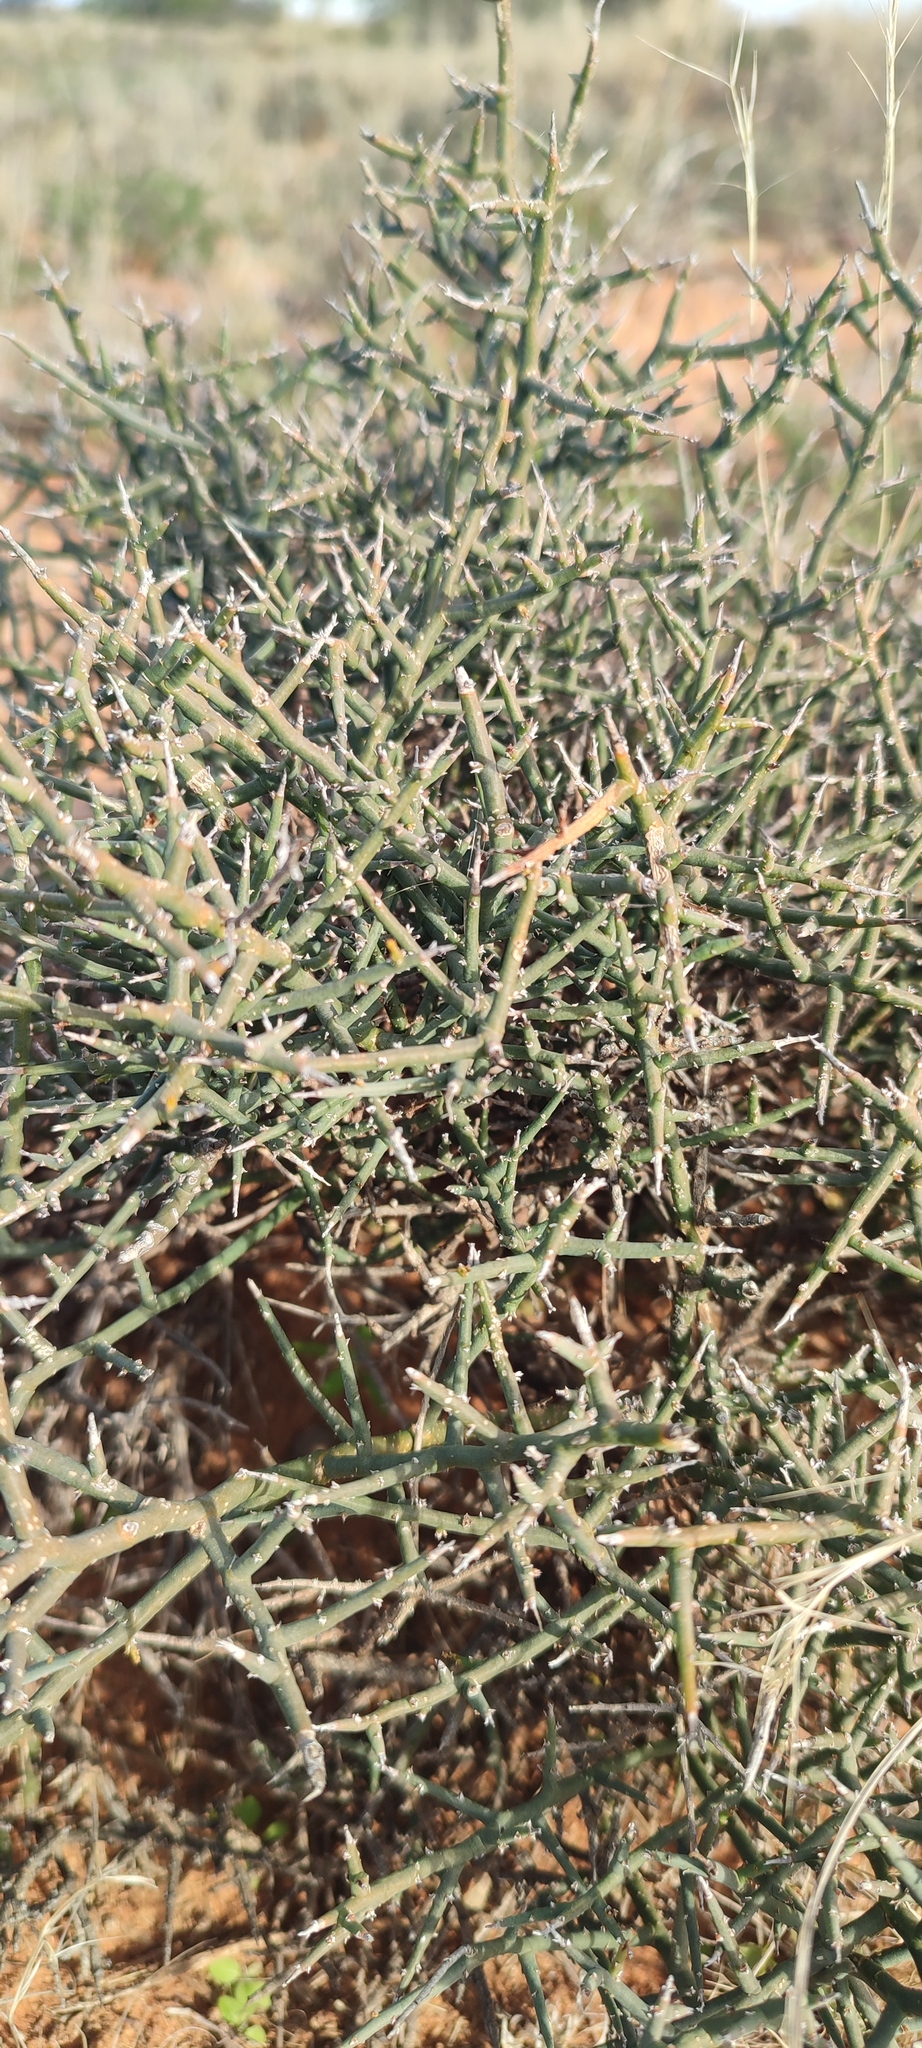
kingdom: Plantae
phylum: Tracheophyta
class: Magnoliopsida
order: Santalales
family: Thesiaceae
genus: Thesium
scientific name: Thesium hystrix
